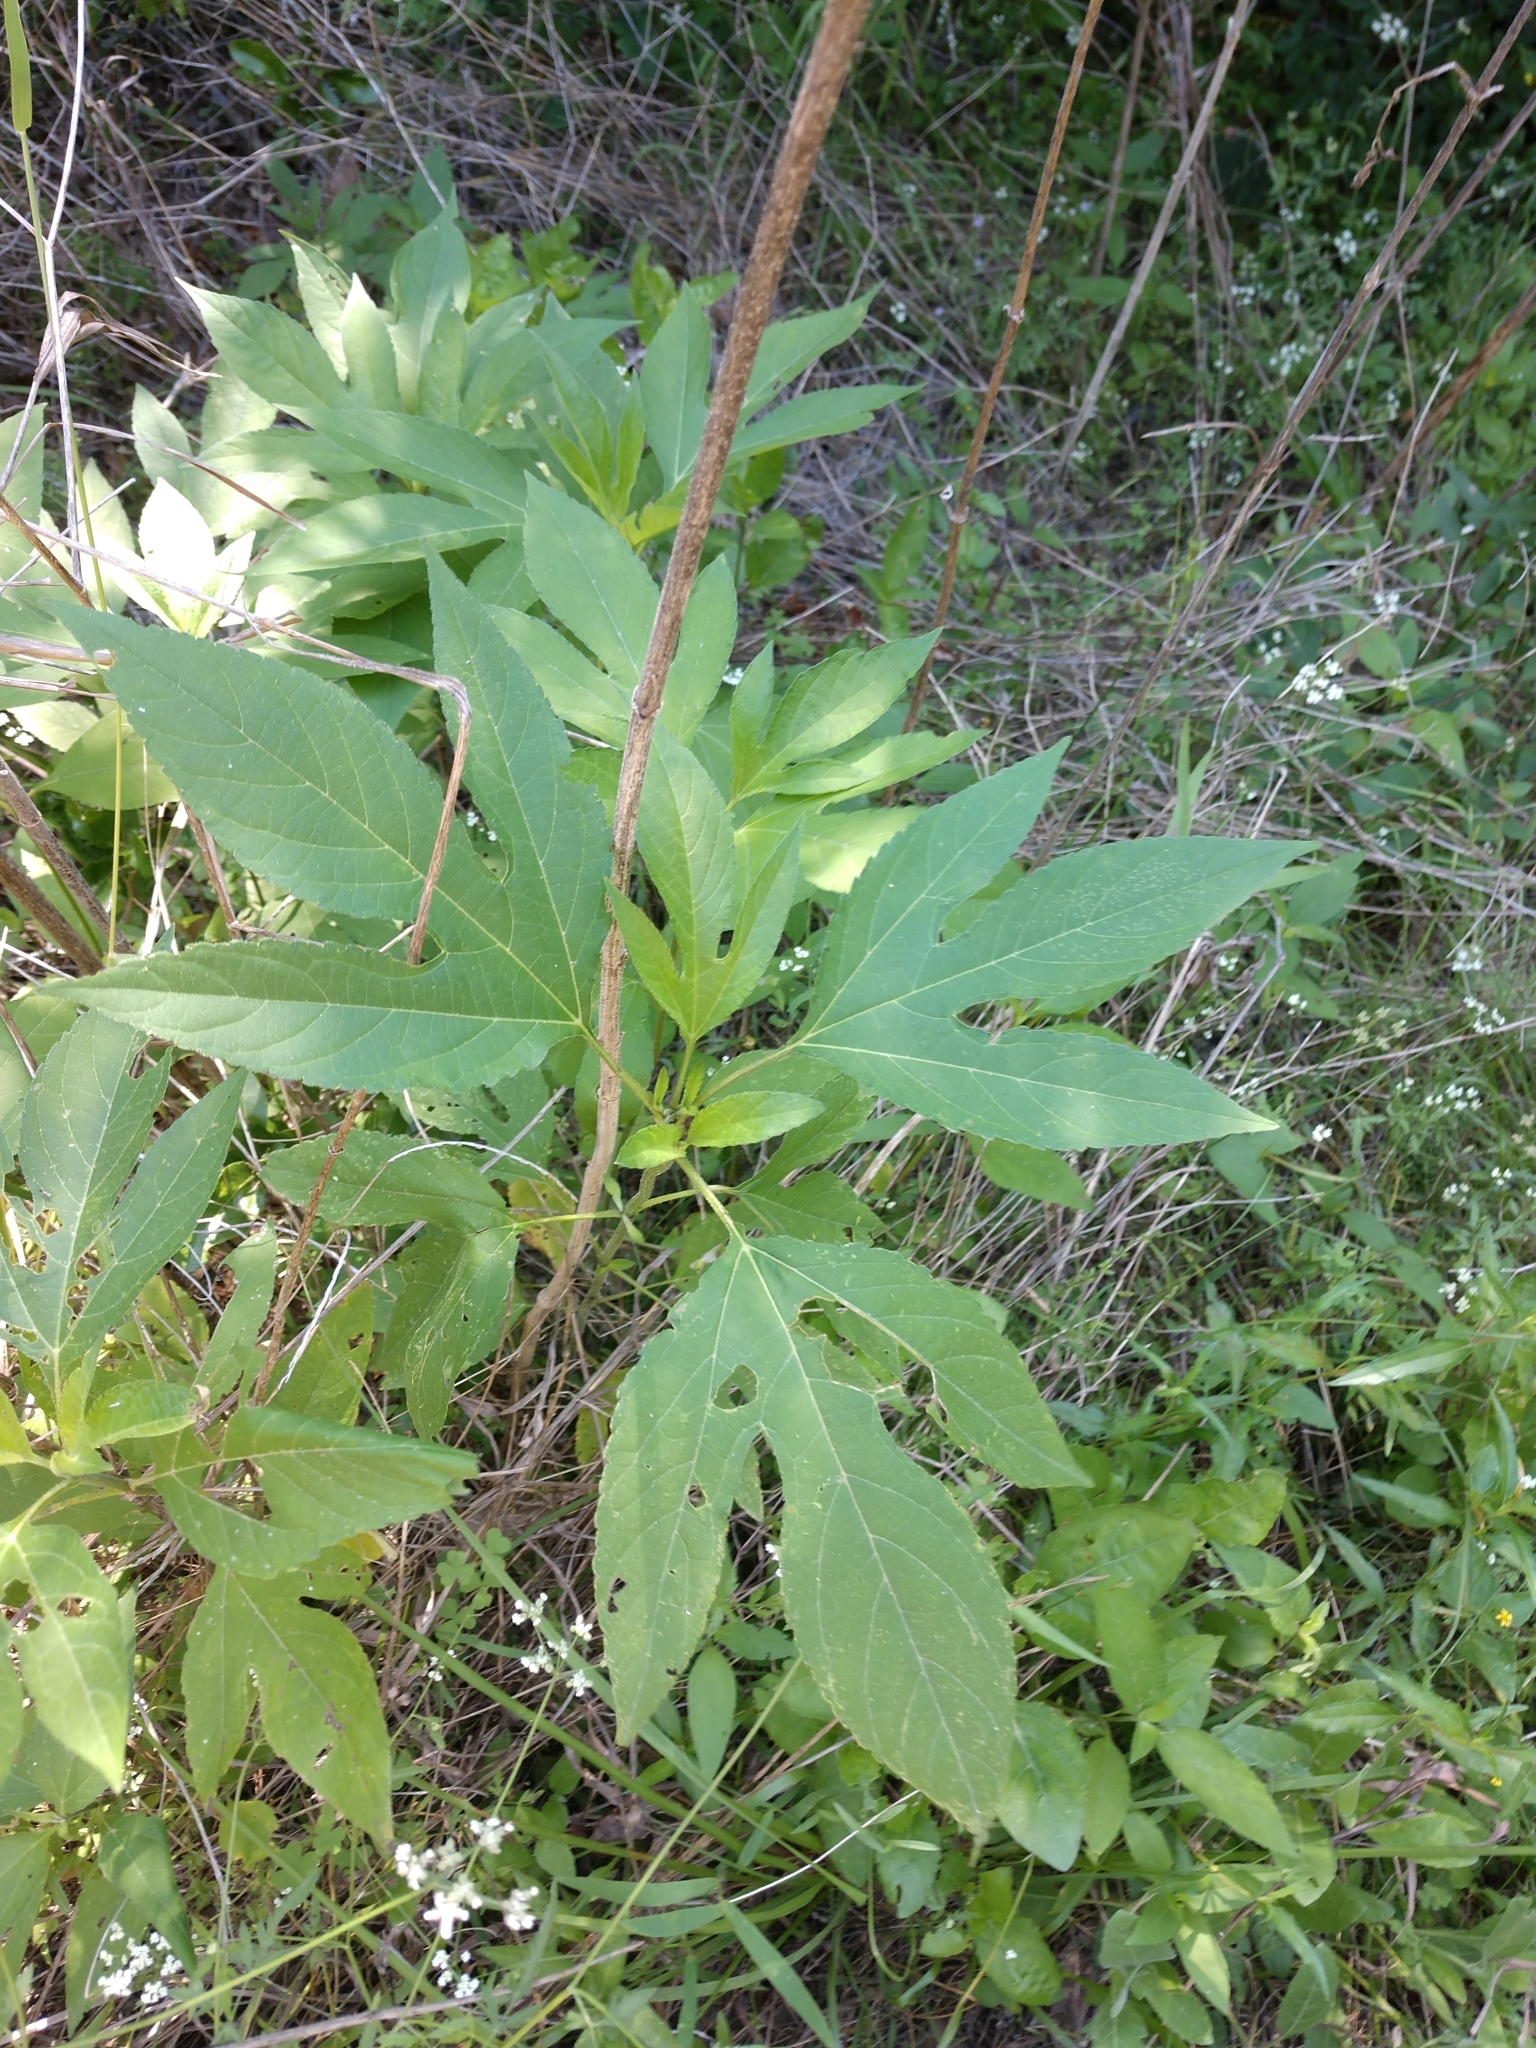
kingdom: Plantae
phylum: Tracheophyta
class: Magnoliopsida
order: Asterales
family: Asteraceae
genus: Ambrosia
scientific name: Ambrosia trifida
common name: Giant ragweed
